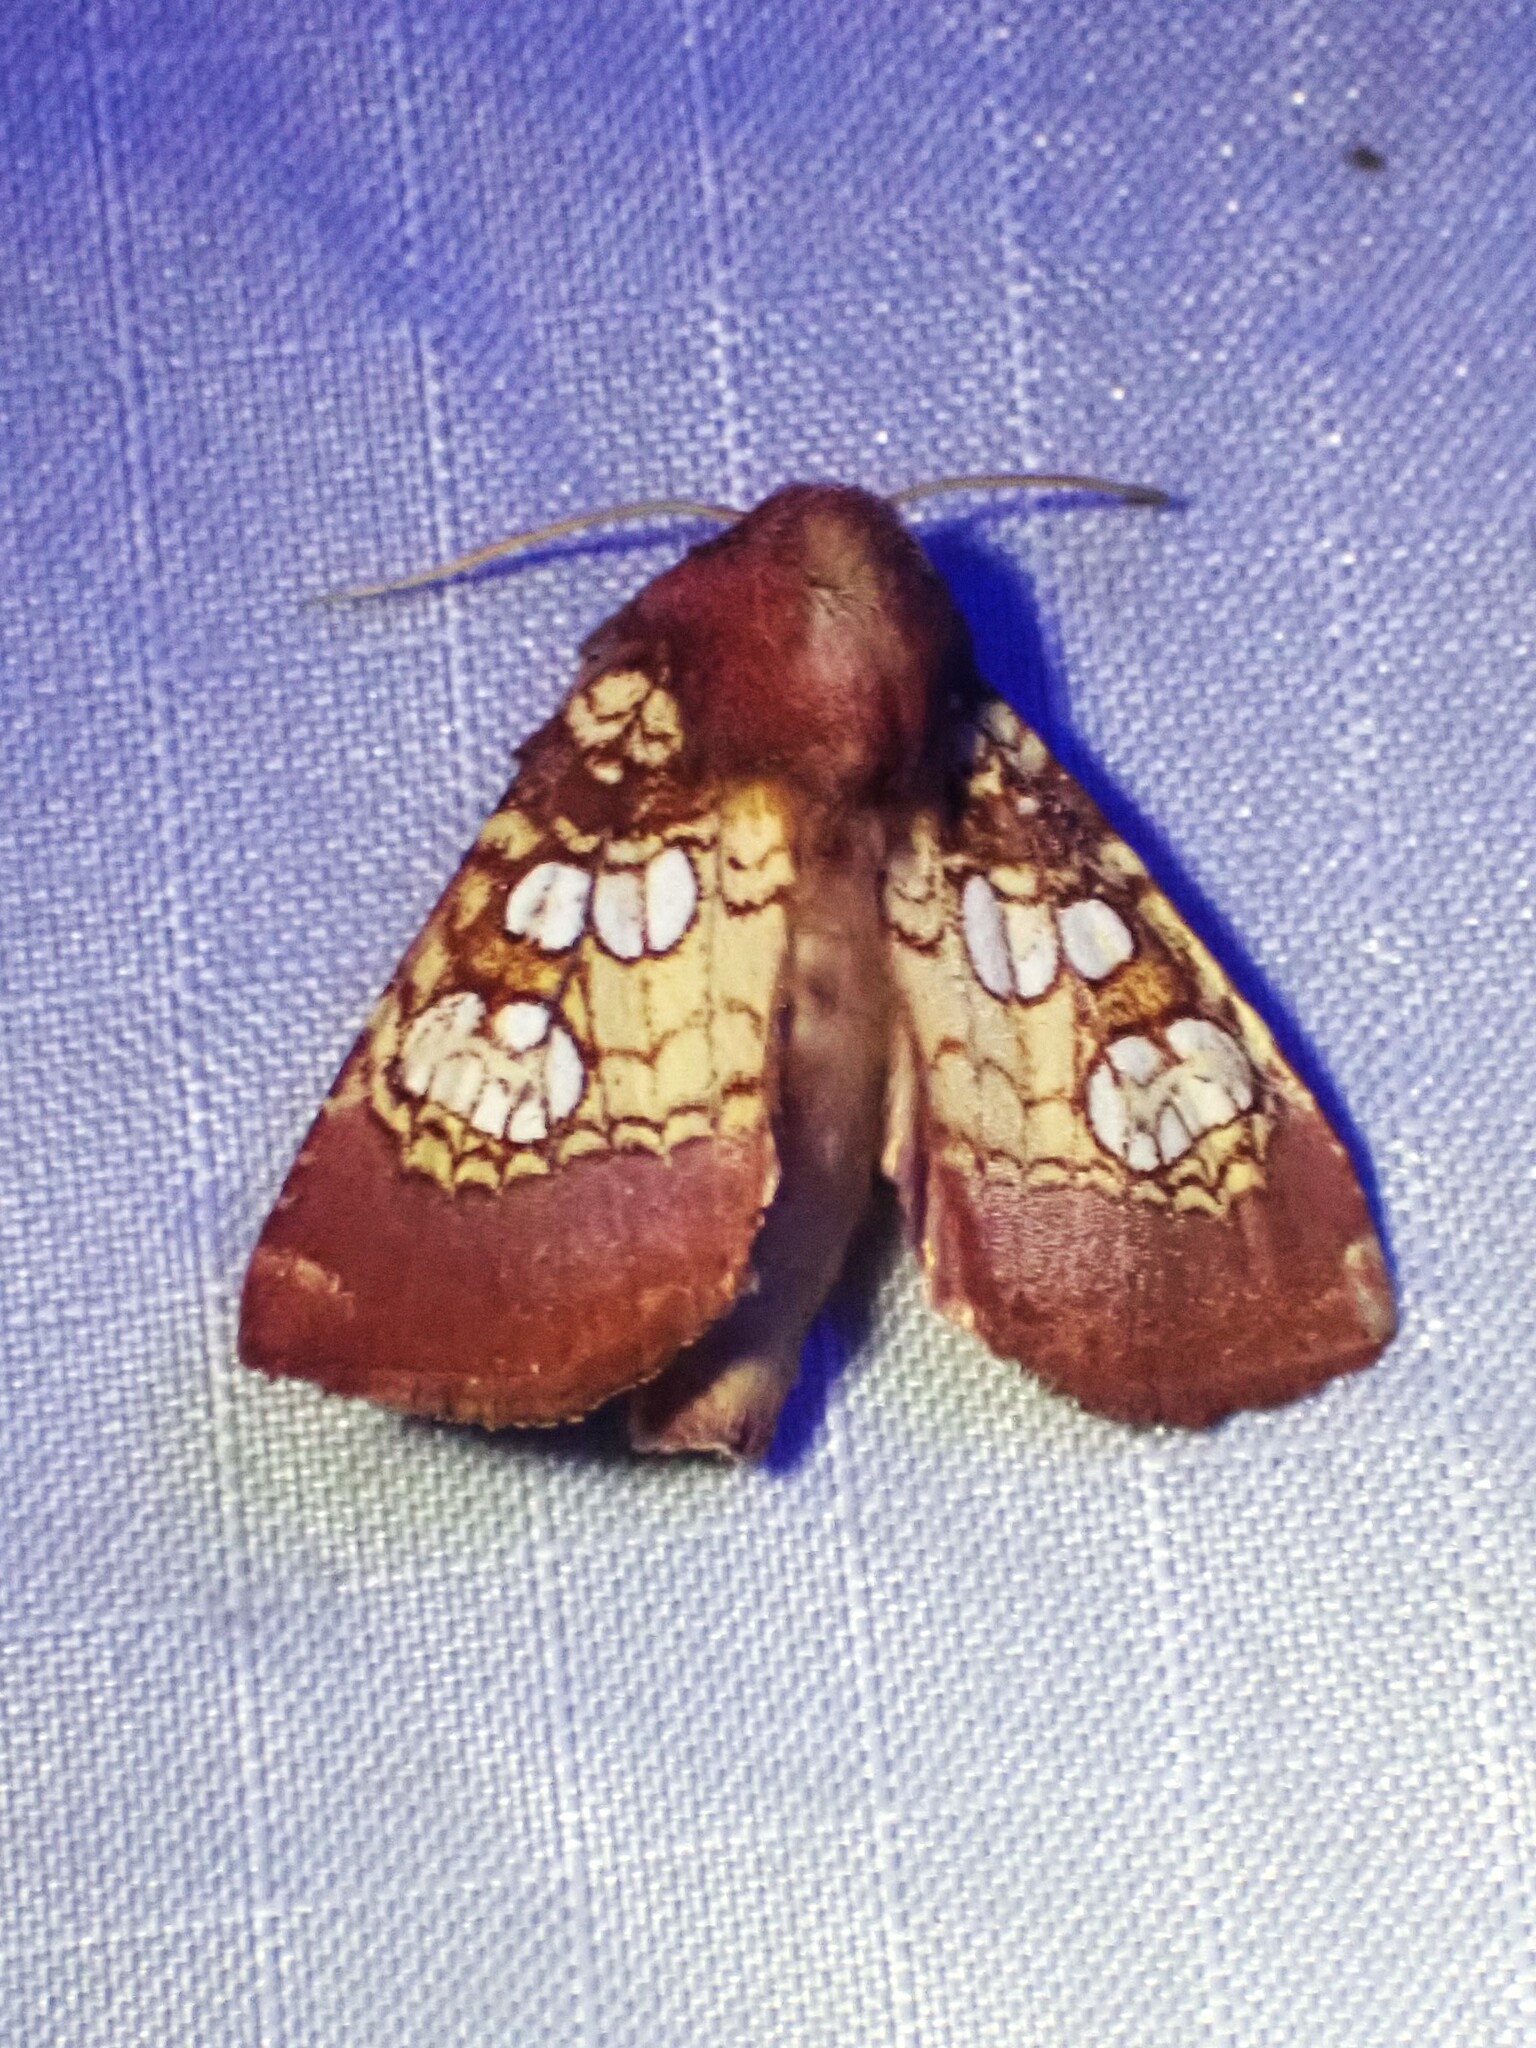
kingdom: Animalia
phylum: Arthropoda
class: Insecta
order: Lepidoptera
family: Noctuidae
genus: Papaipema
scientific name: Papaipema appassionata
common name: Pitcher plant borer moth
